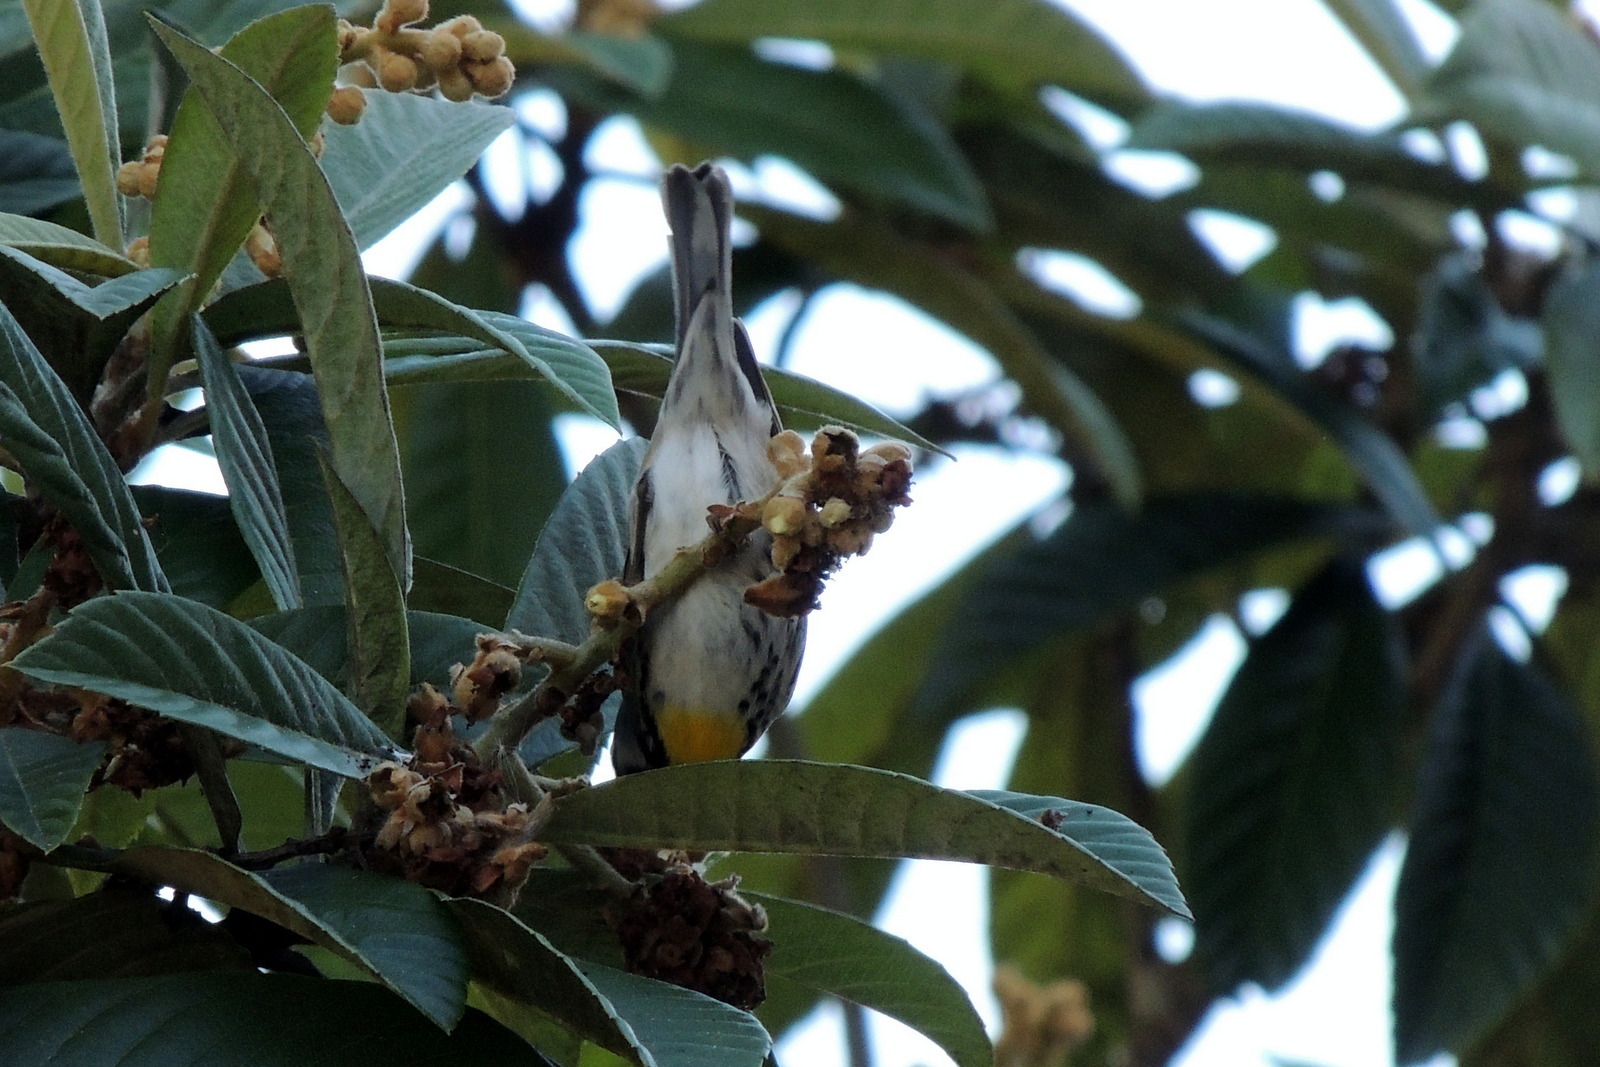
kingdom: Animalia
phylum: Chordata
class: Aves
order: Passeriformes
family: Parulidae
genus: Setophaga
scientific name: Setophaga dominica
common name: Yellow-throated warbler
